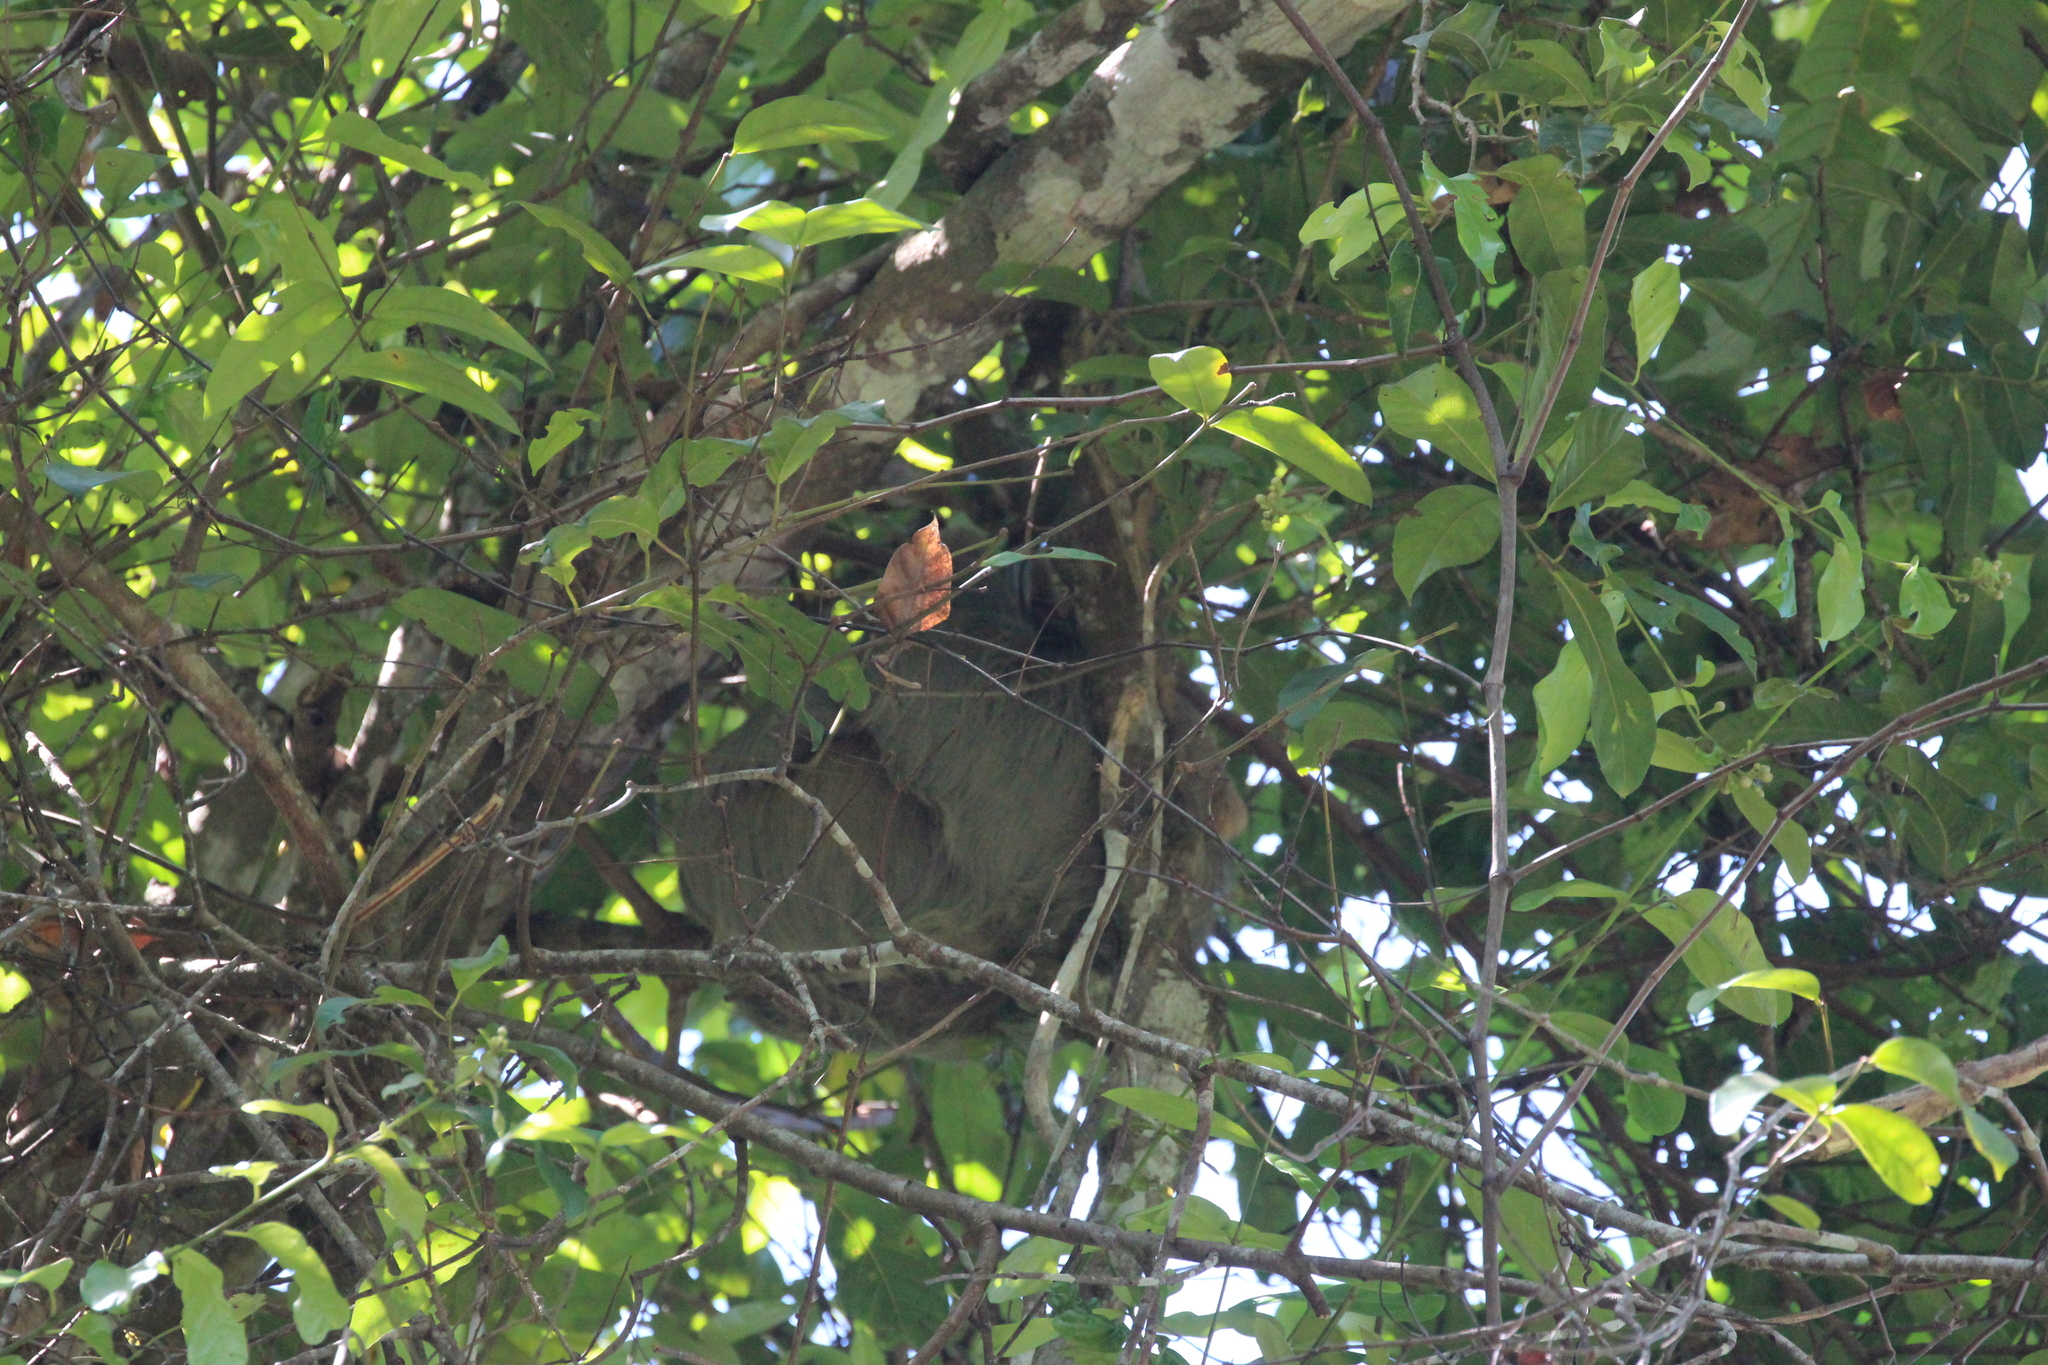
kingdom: Animalia
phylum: Chordata
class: Mammalia
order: Pilosa
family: Megalonychidae
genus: Choloepus
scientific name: Choloepus hoffmanni
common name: Hoffmann's two-toed sloth
